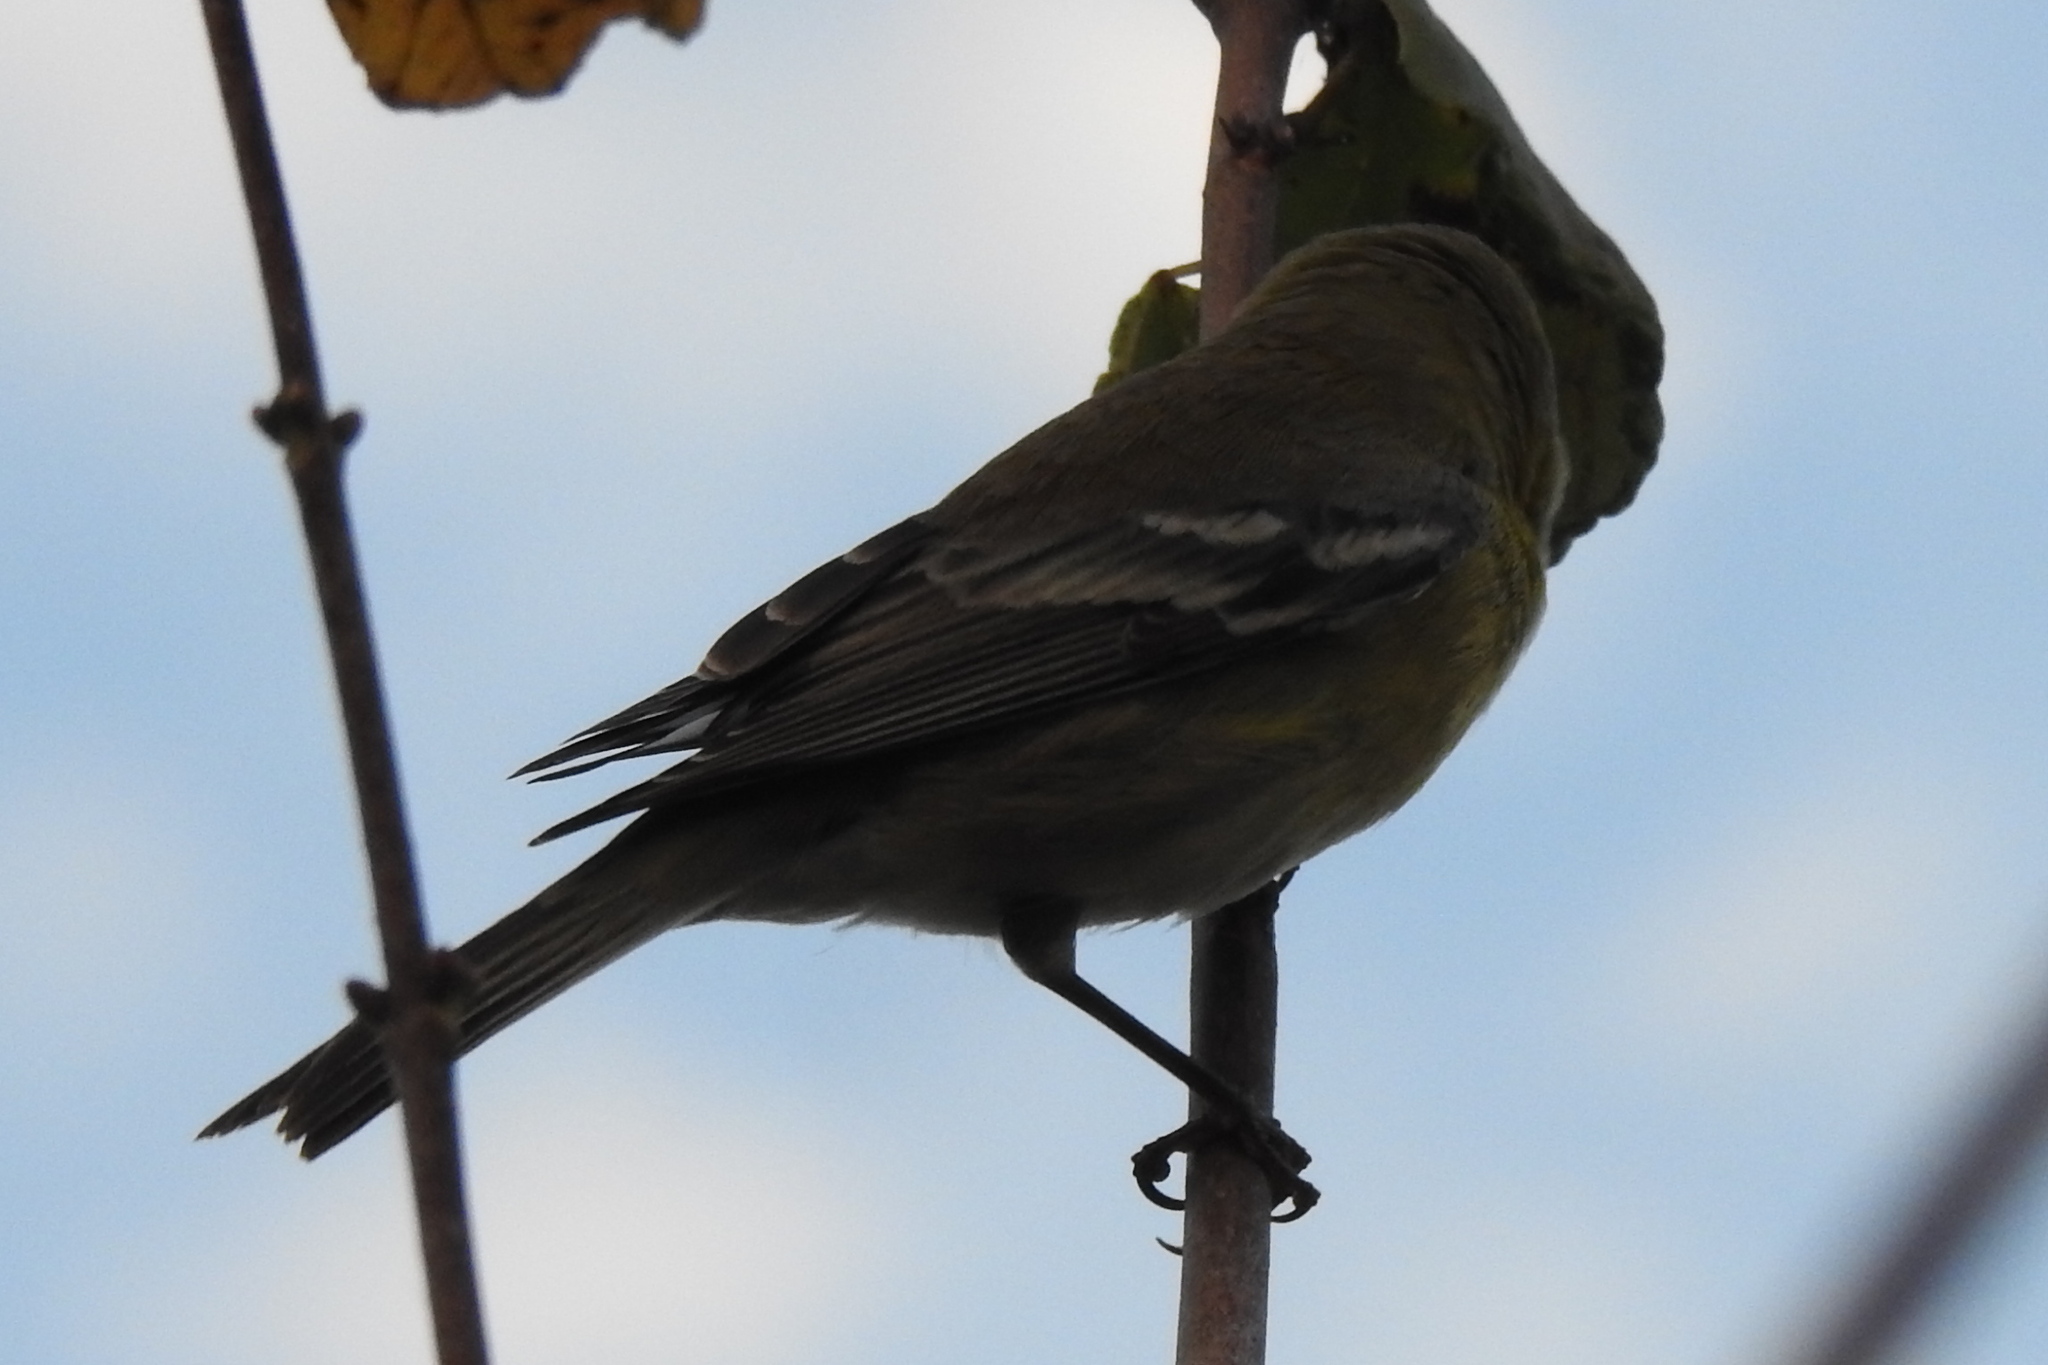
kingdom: Animalia
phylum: Chordata
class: Aves
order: Passeriformes
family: Parulidae
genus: Setophaga
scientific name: Setophaga pinus
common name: Pine warbler
